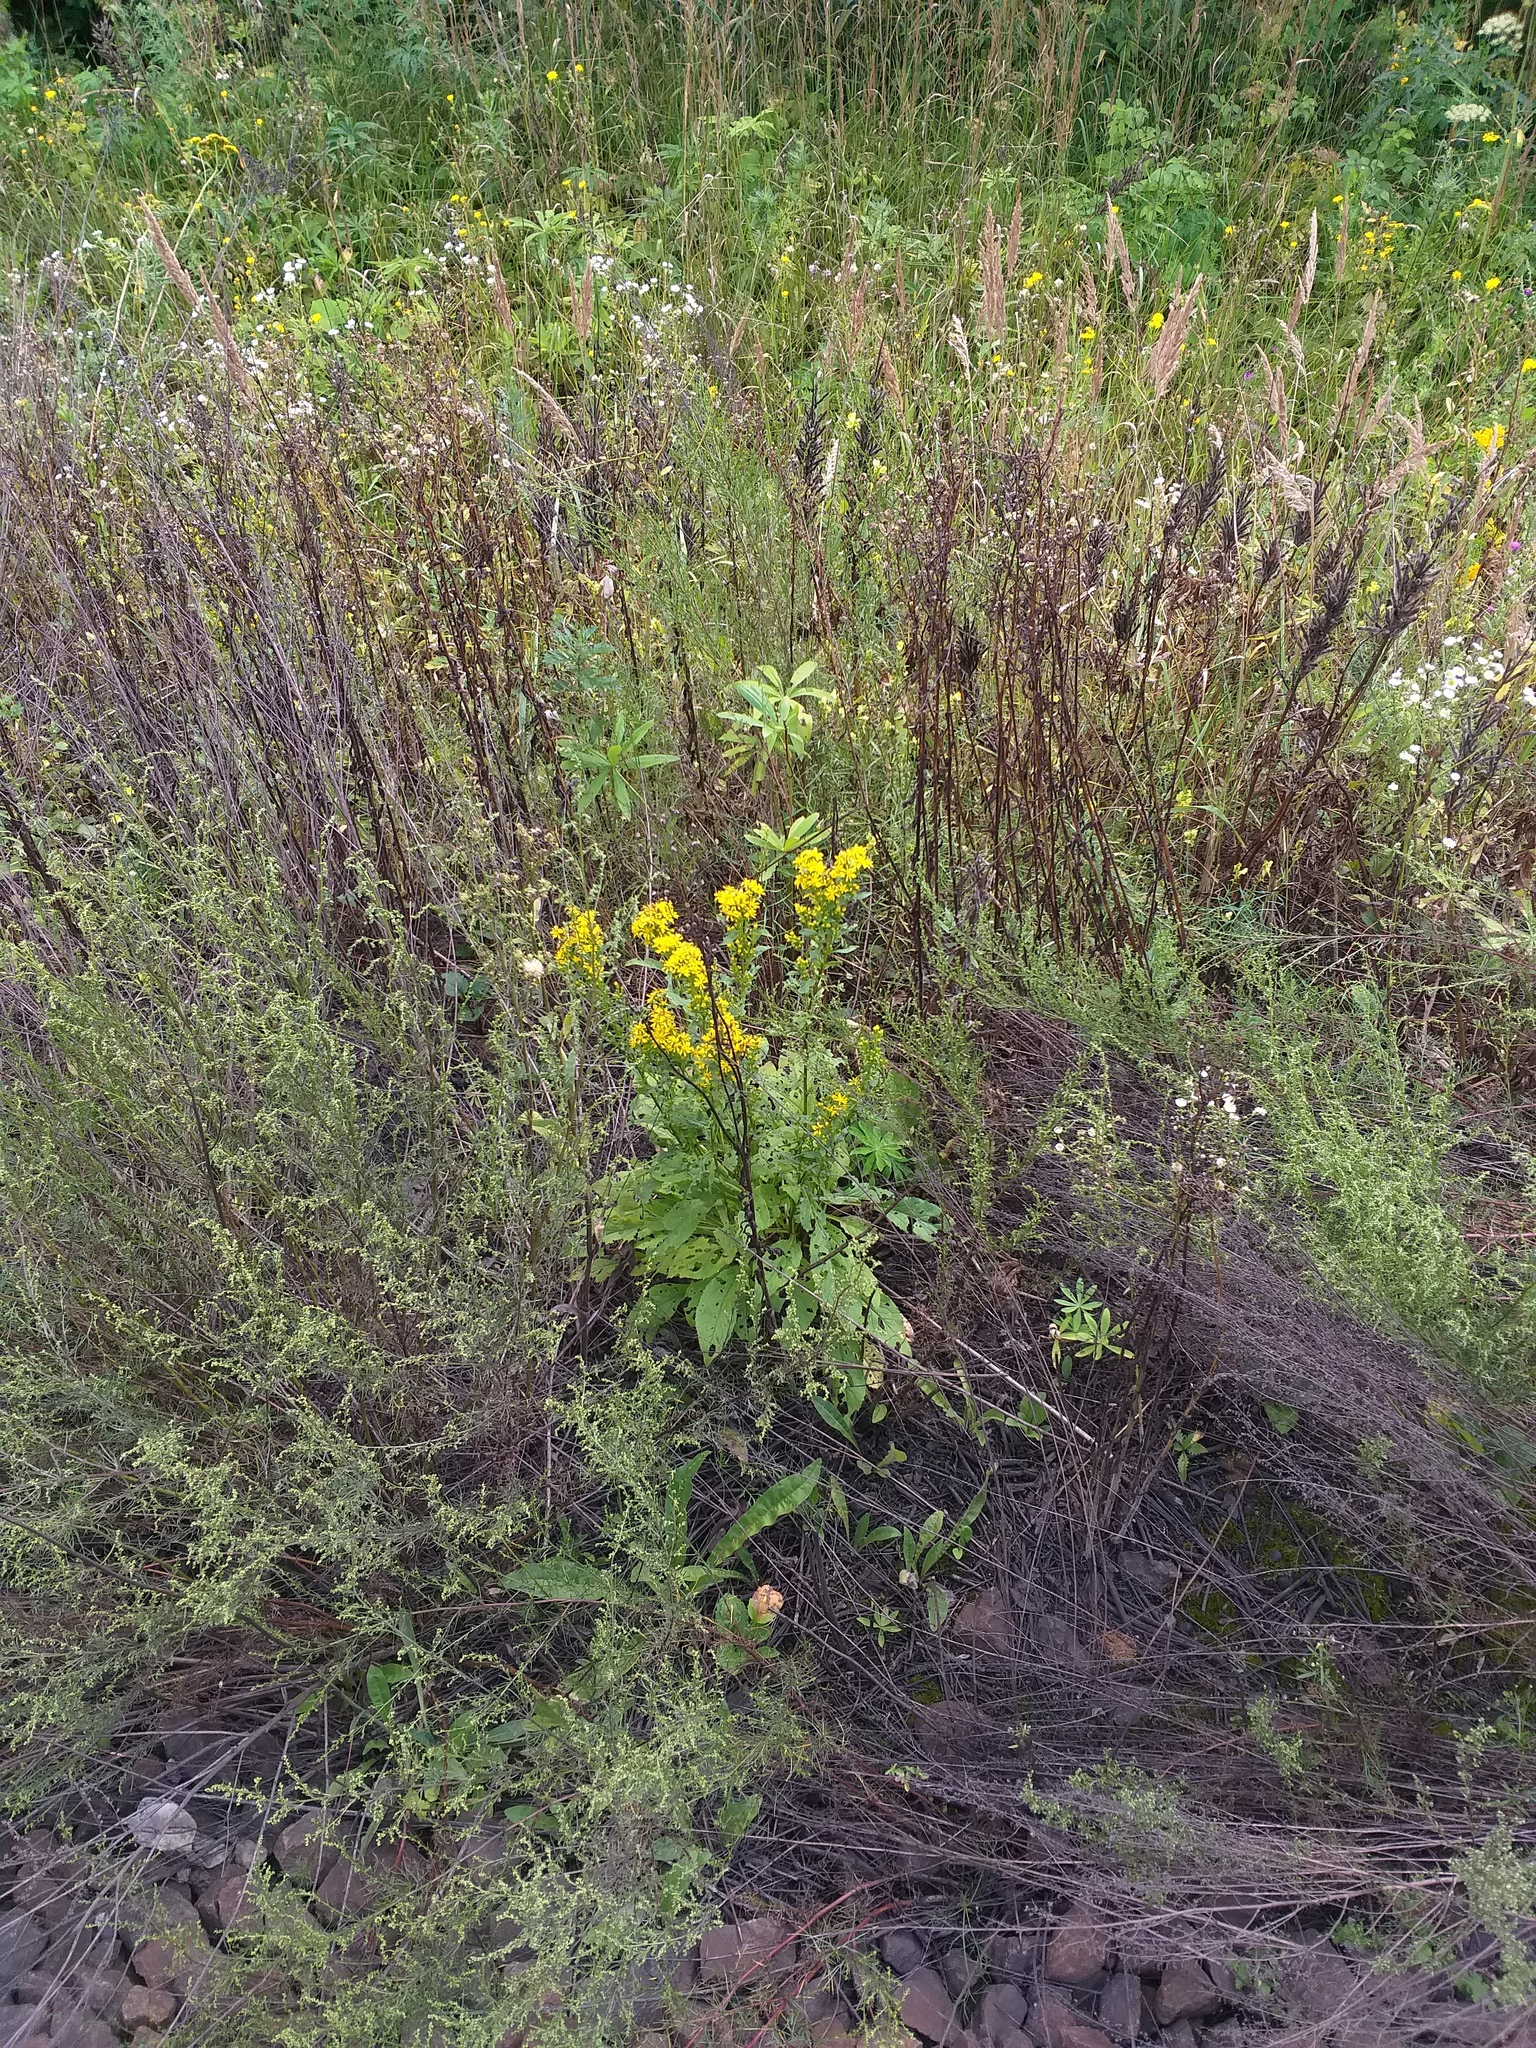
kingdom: Plantae
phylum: Tracheophyta
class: Magnoliopsida
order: Asterales
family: Asteraceae
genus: Solidago
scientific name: Solidago virgaurea
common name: Goldenrod
